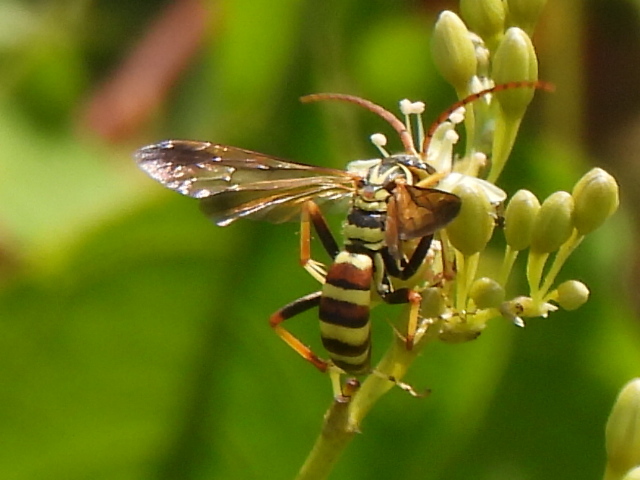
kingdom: Animalia
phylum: Arthropoda
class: Insecta
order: Hymenoptera
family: Pompilidae
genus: Poecilopompilus
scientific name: Poecilopompilus interruptus
